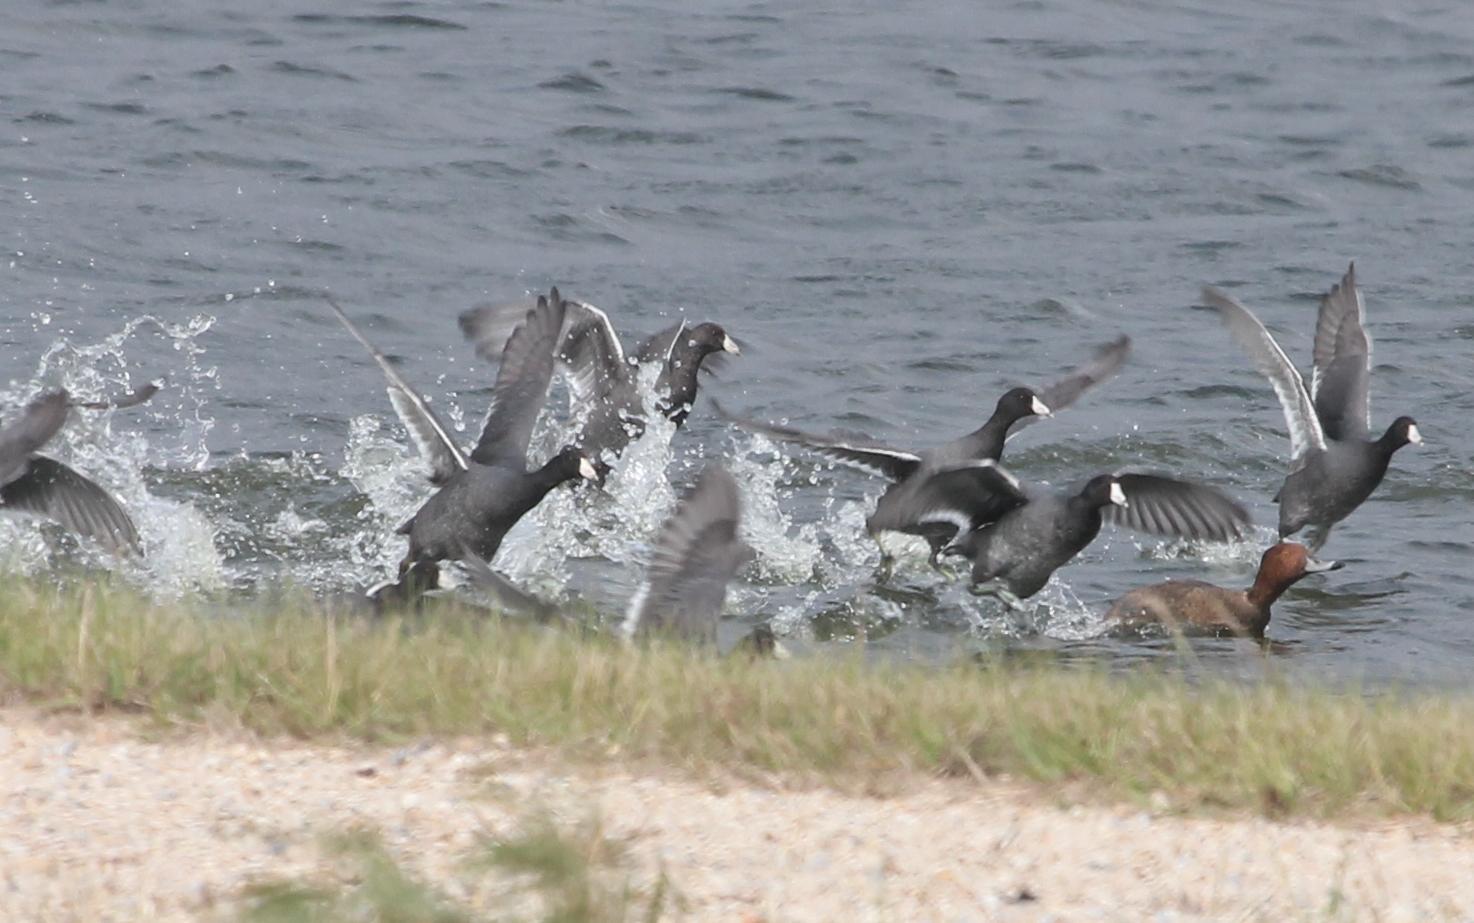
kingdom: Animalia
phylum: Chordata
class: Aves
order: Gruiformes
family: Rallidae
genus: Fulica
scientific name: Fulica americana
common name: American coot
